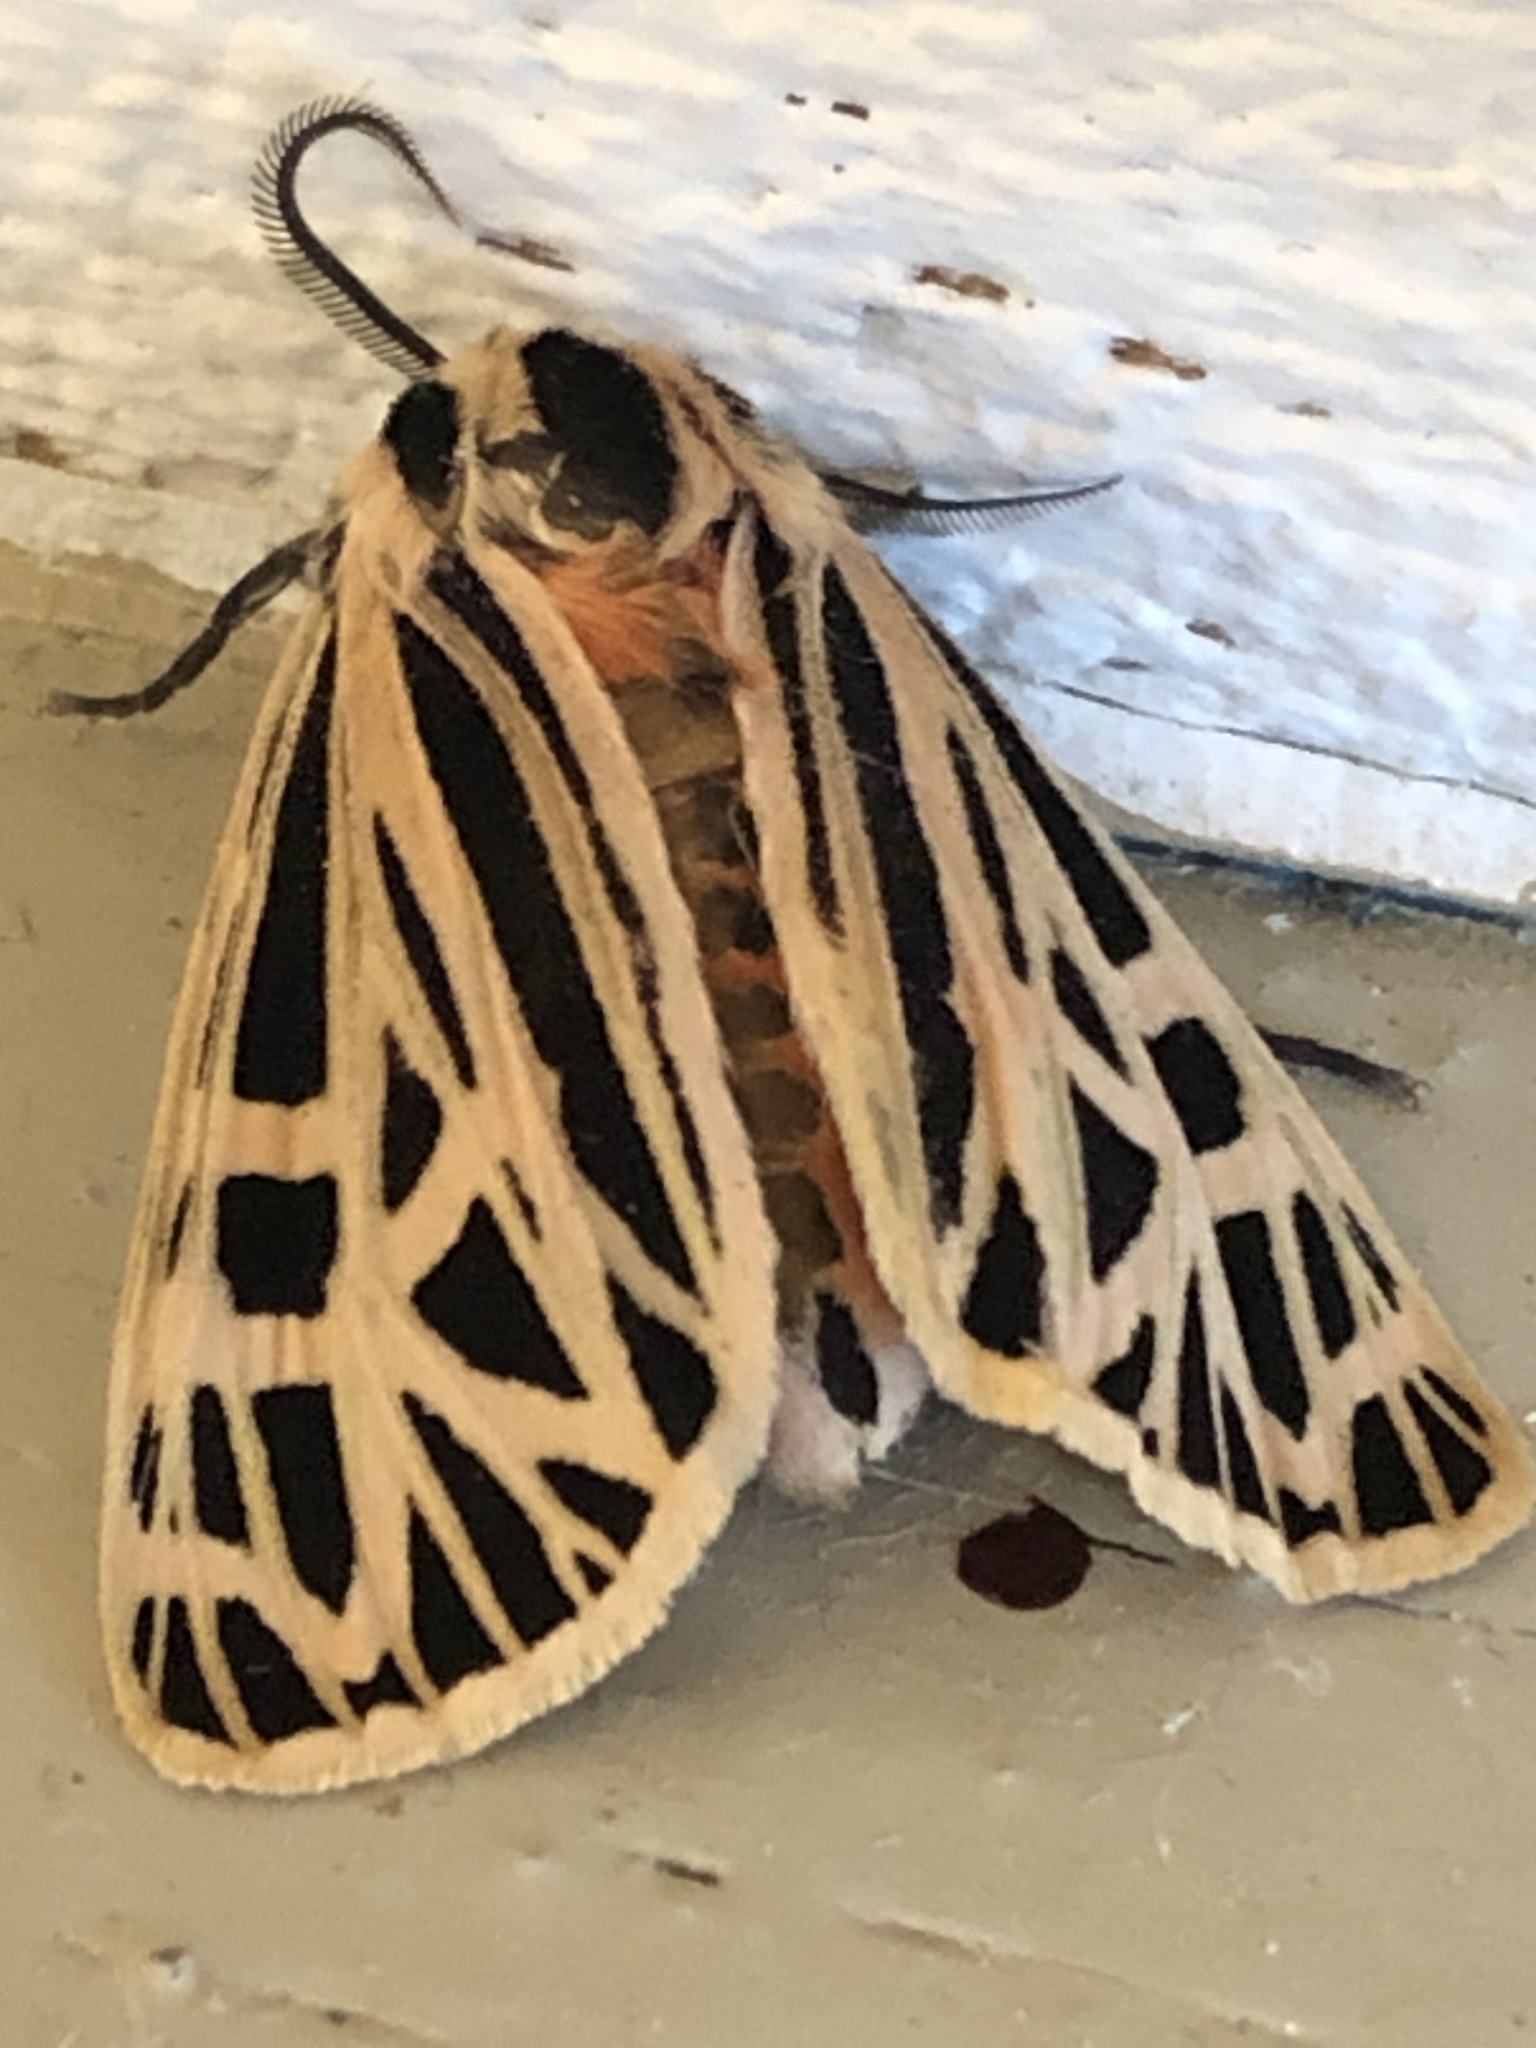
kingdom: Animalia
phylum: Arthropoda
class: Insecta
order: Lepidoptera
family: Erebidae
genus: Grammia
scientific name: Grammia virgo
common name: Virgin tiger moth
